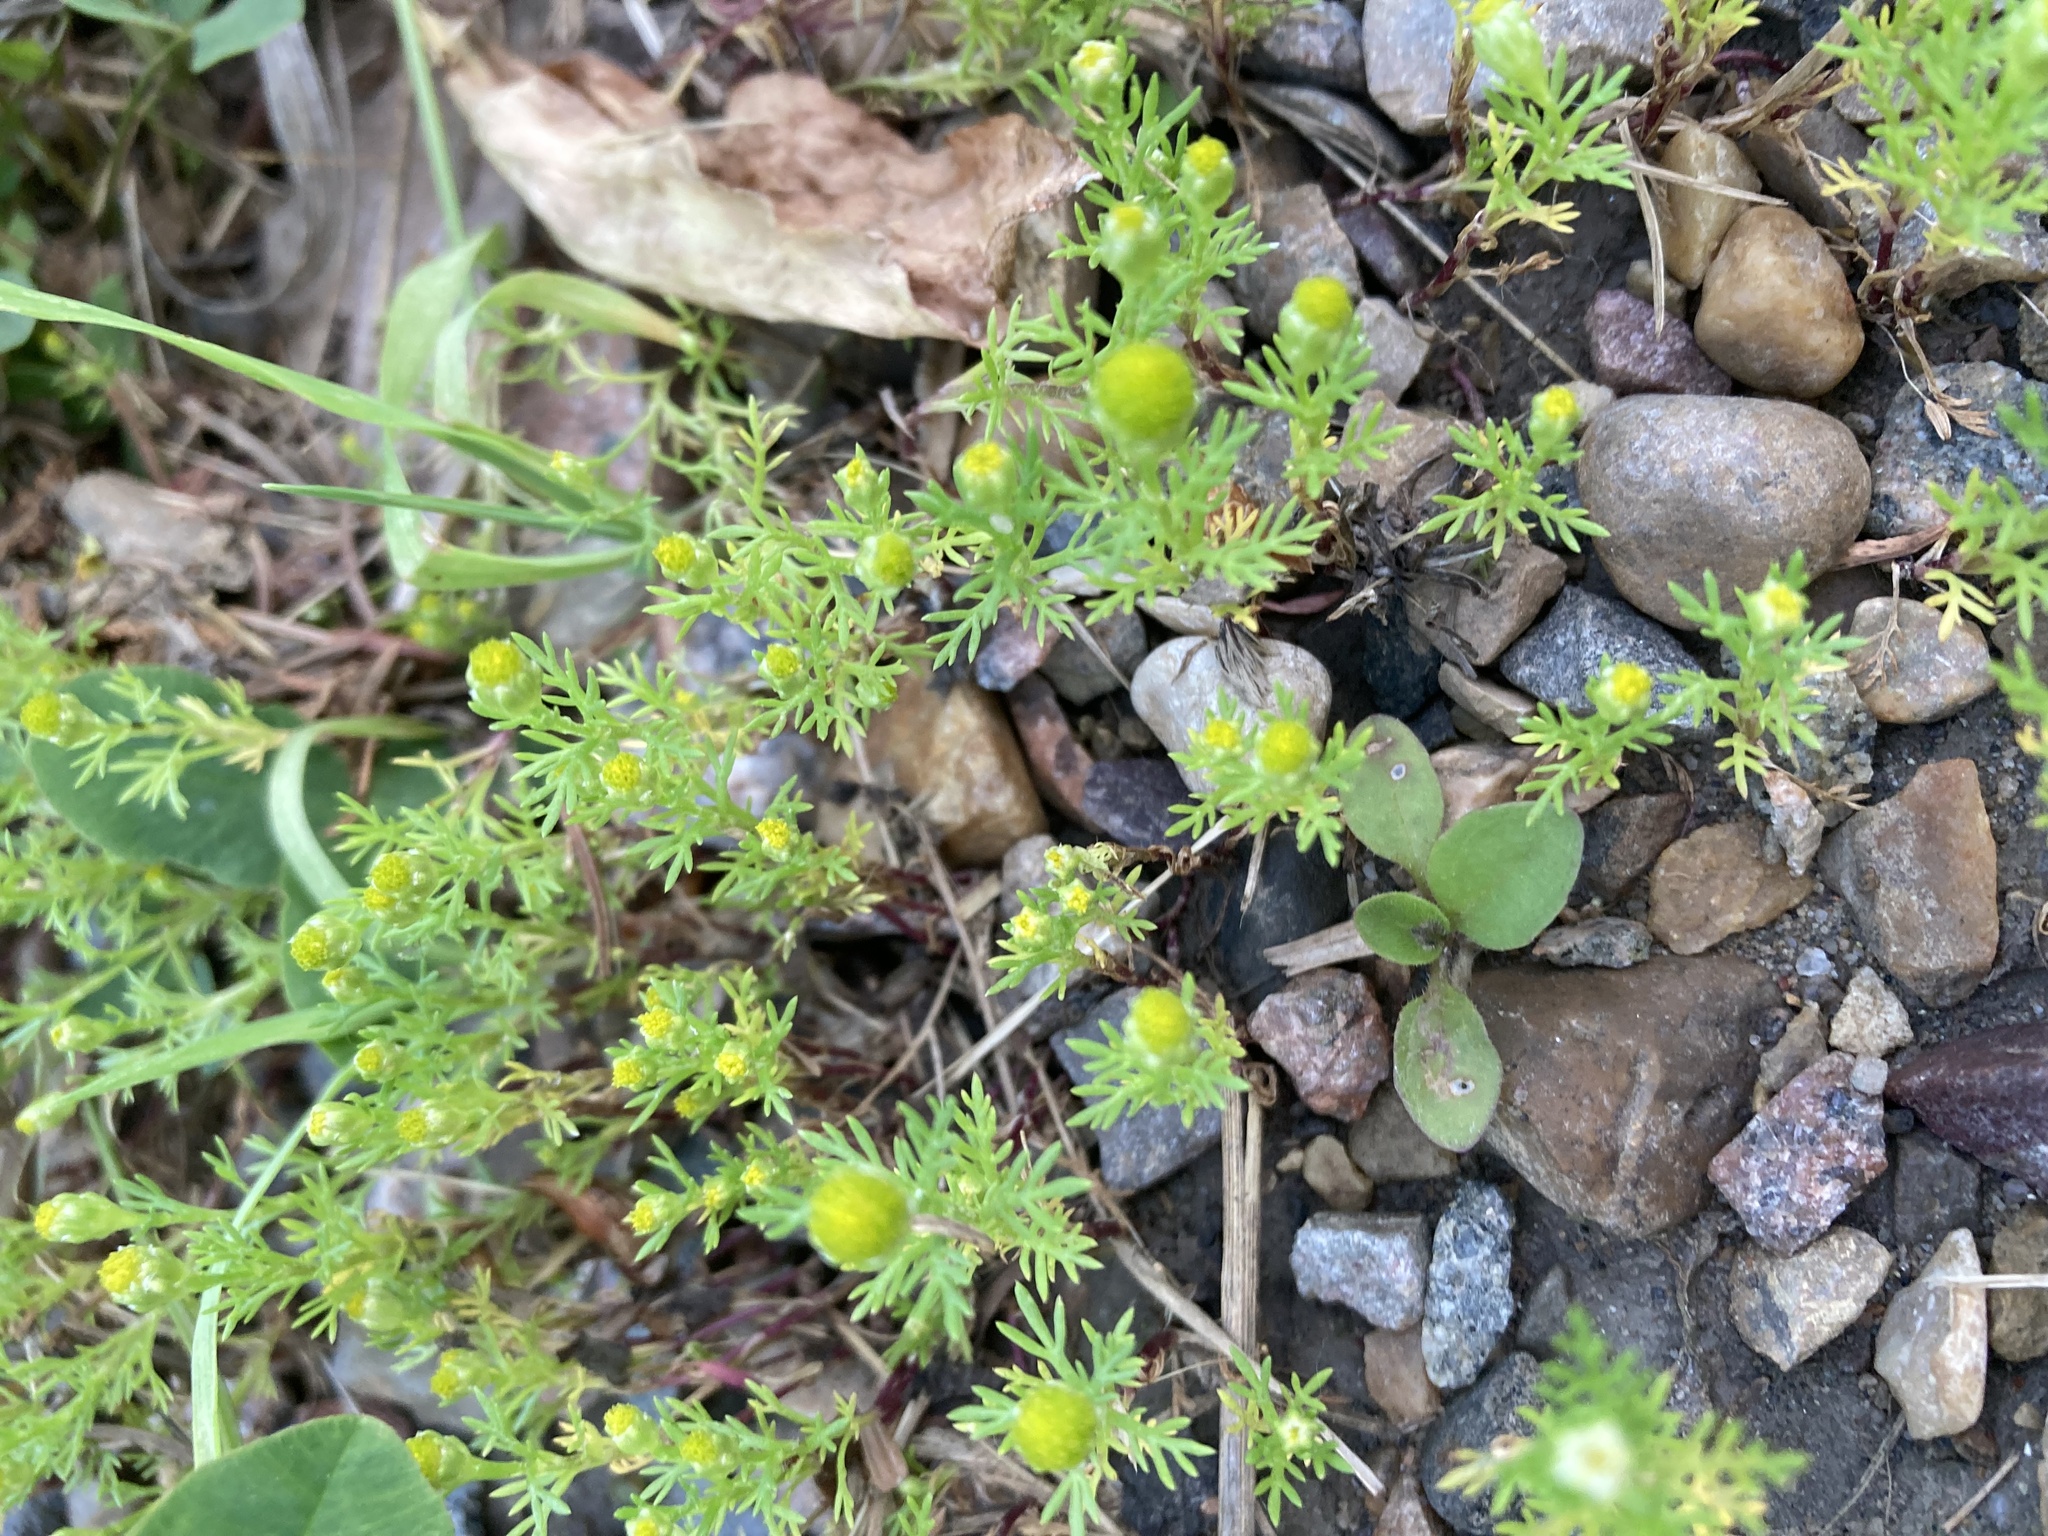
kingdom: Plantae
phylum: Tracheophyta
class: Magnoliopsida
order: Asterales
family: Asteraceae
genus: Matricaria
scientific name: Matricaria discoidea
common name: Disc mayweed
